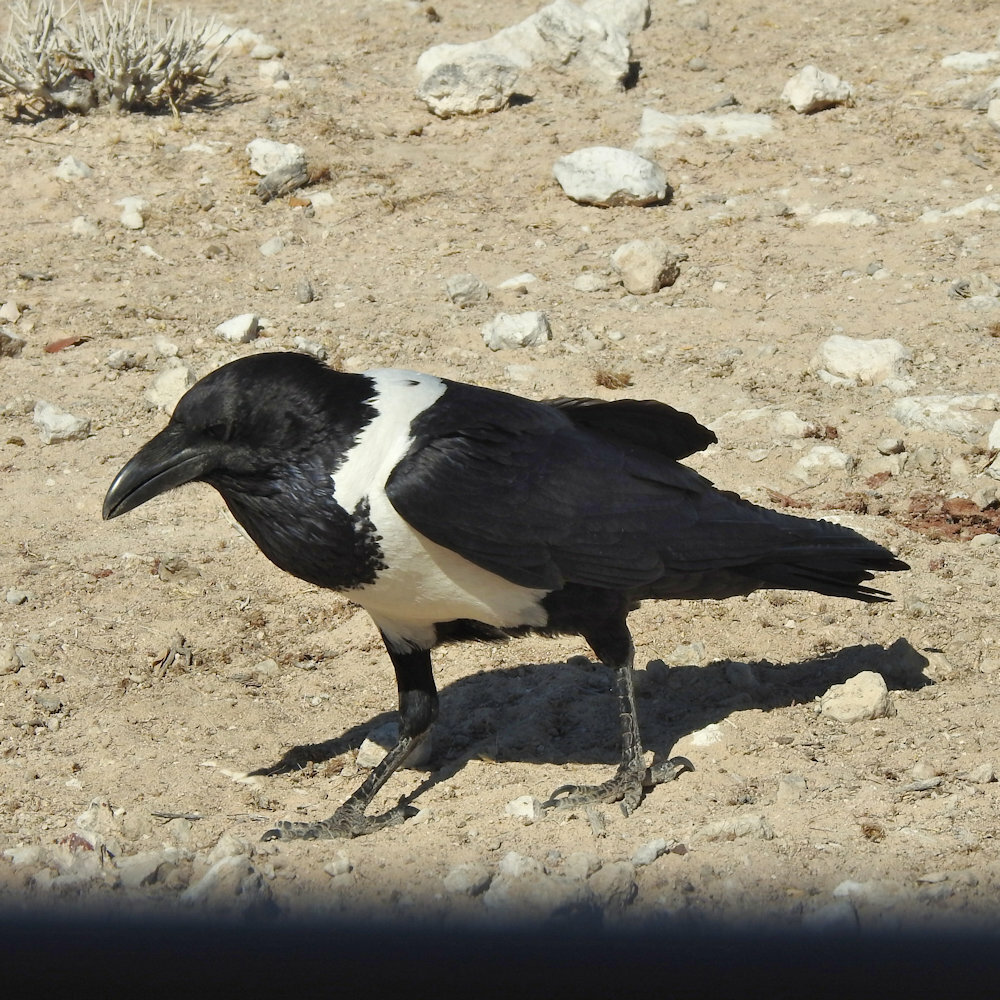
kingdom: Animalia
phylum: Chordata
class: Aves
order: Passeriformes
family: Corvidae
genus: Corvus
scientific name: Corvus albus
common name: Pied crow
